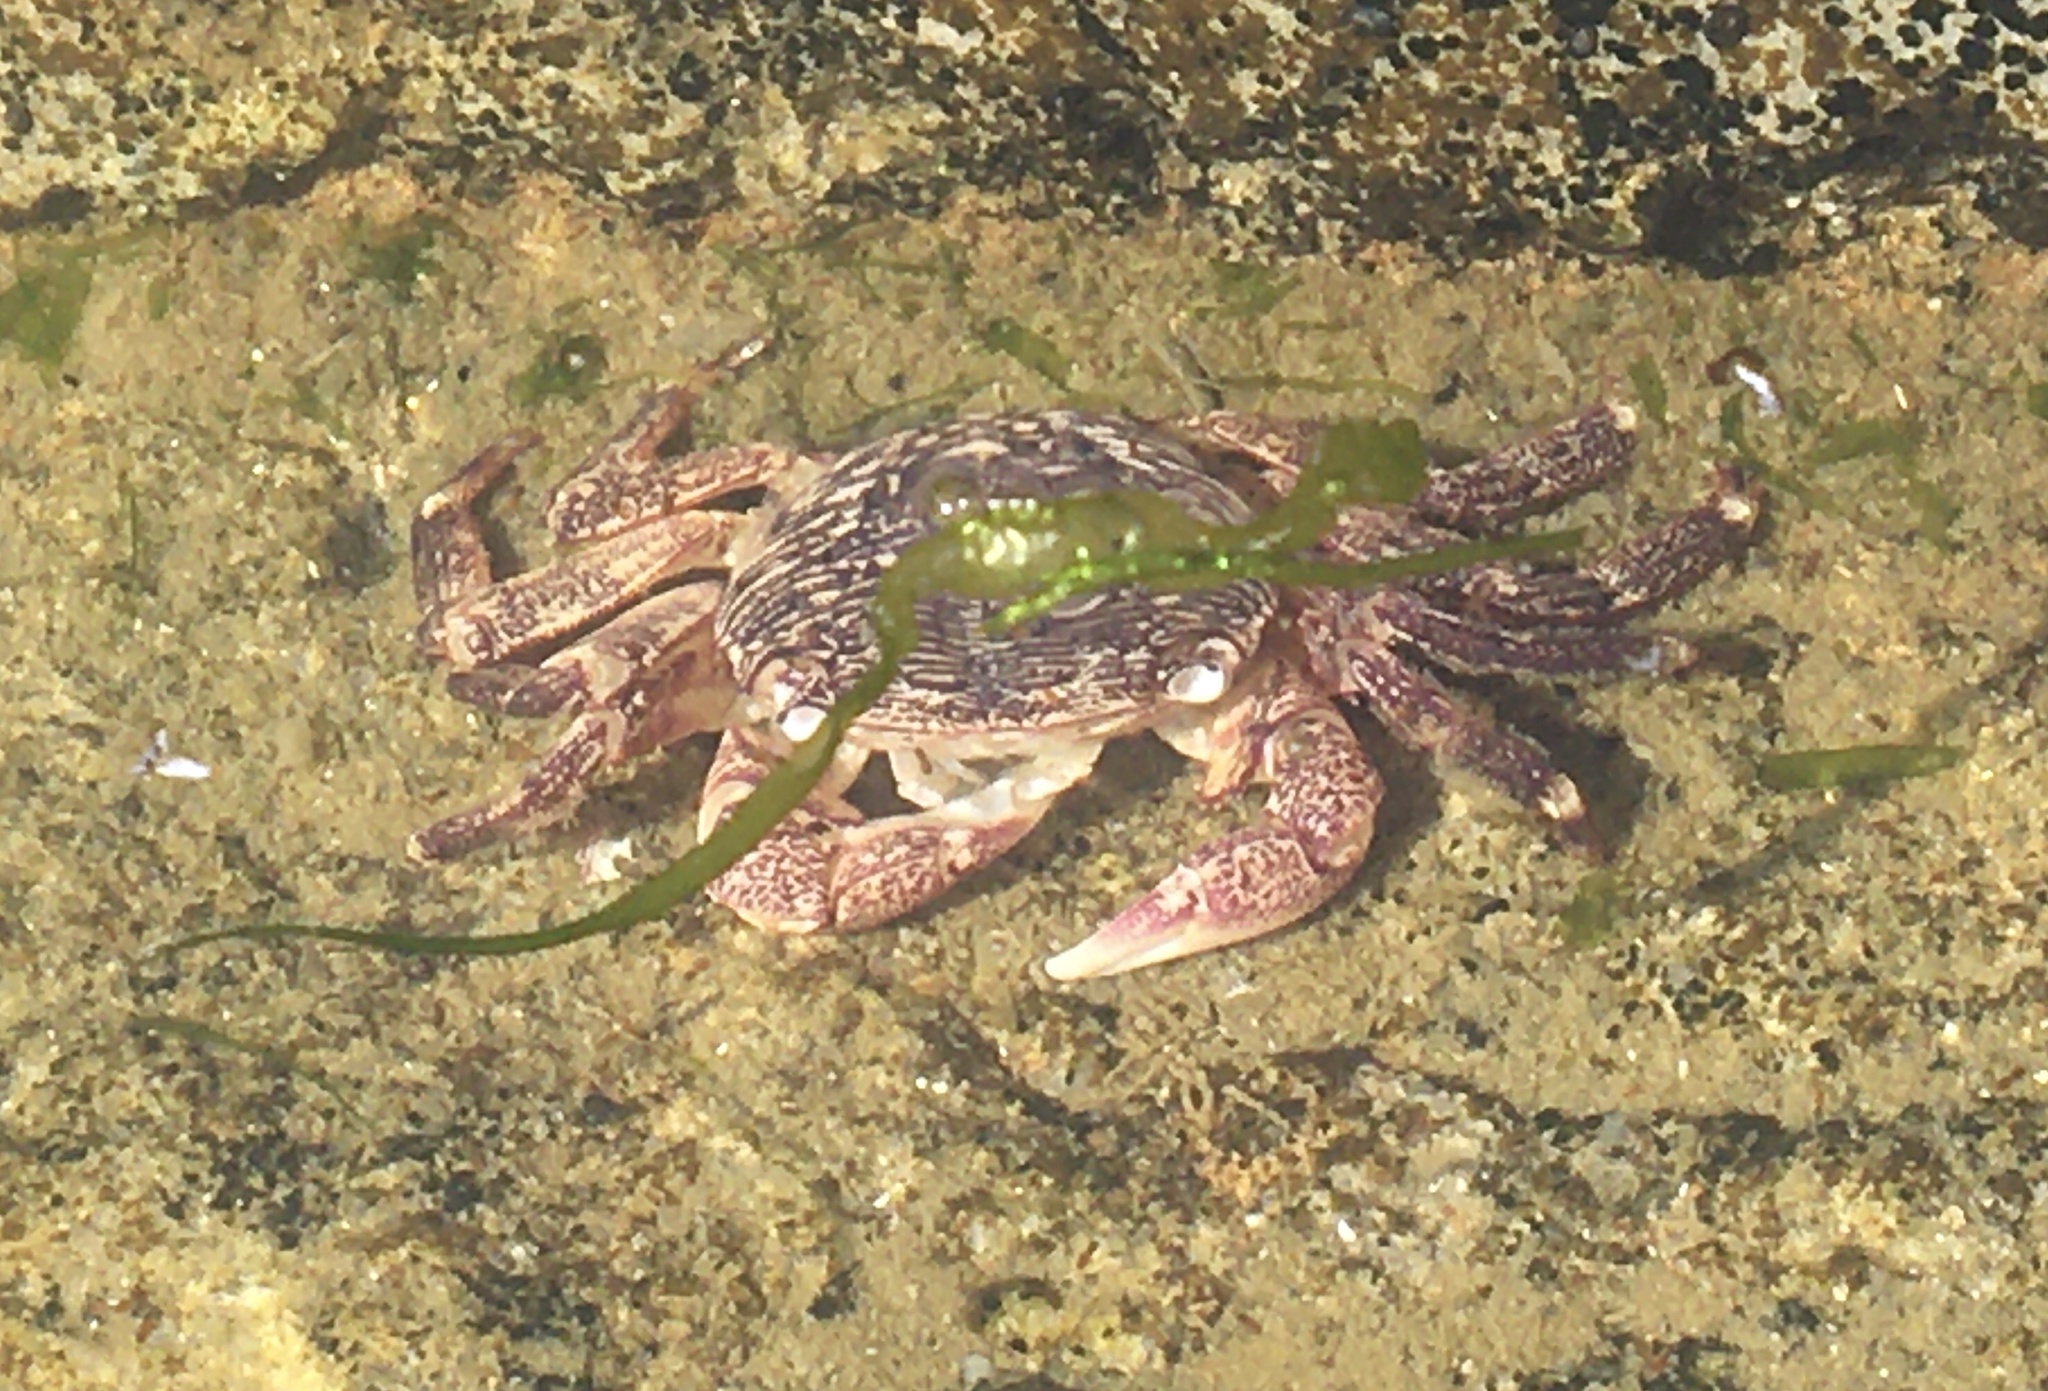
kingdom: Animalia
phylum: Arthropoda
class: Malacostraca
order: Decapoda
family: Grapsidae
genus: Pachygrapsus
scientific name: Pachygrapsus crassipes
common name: Striped shore crab
